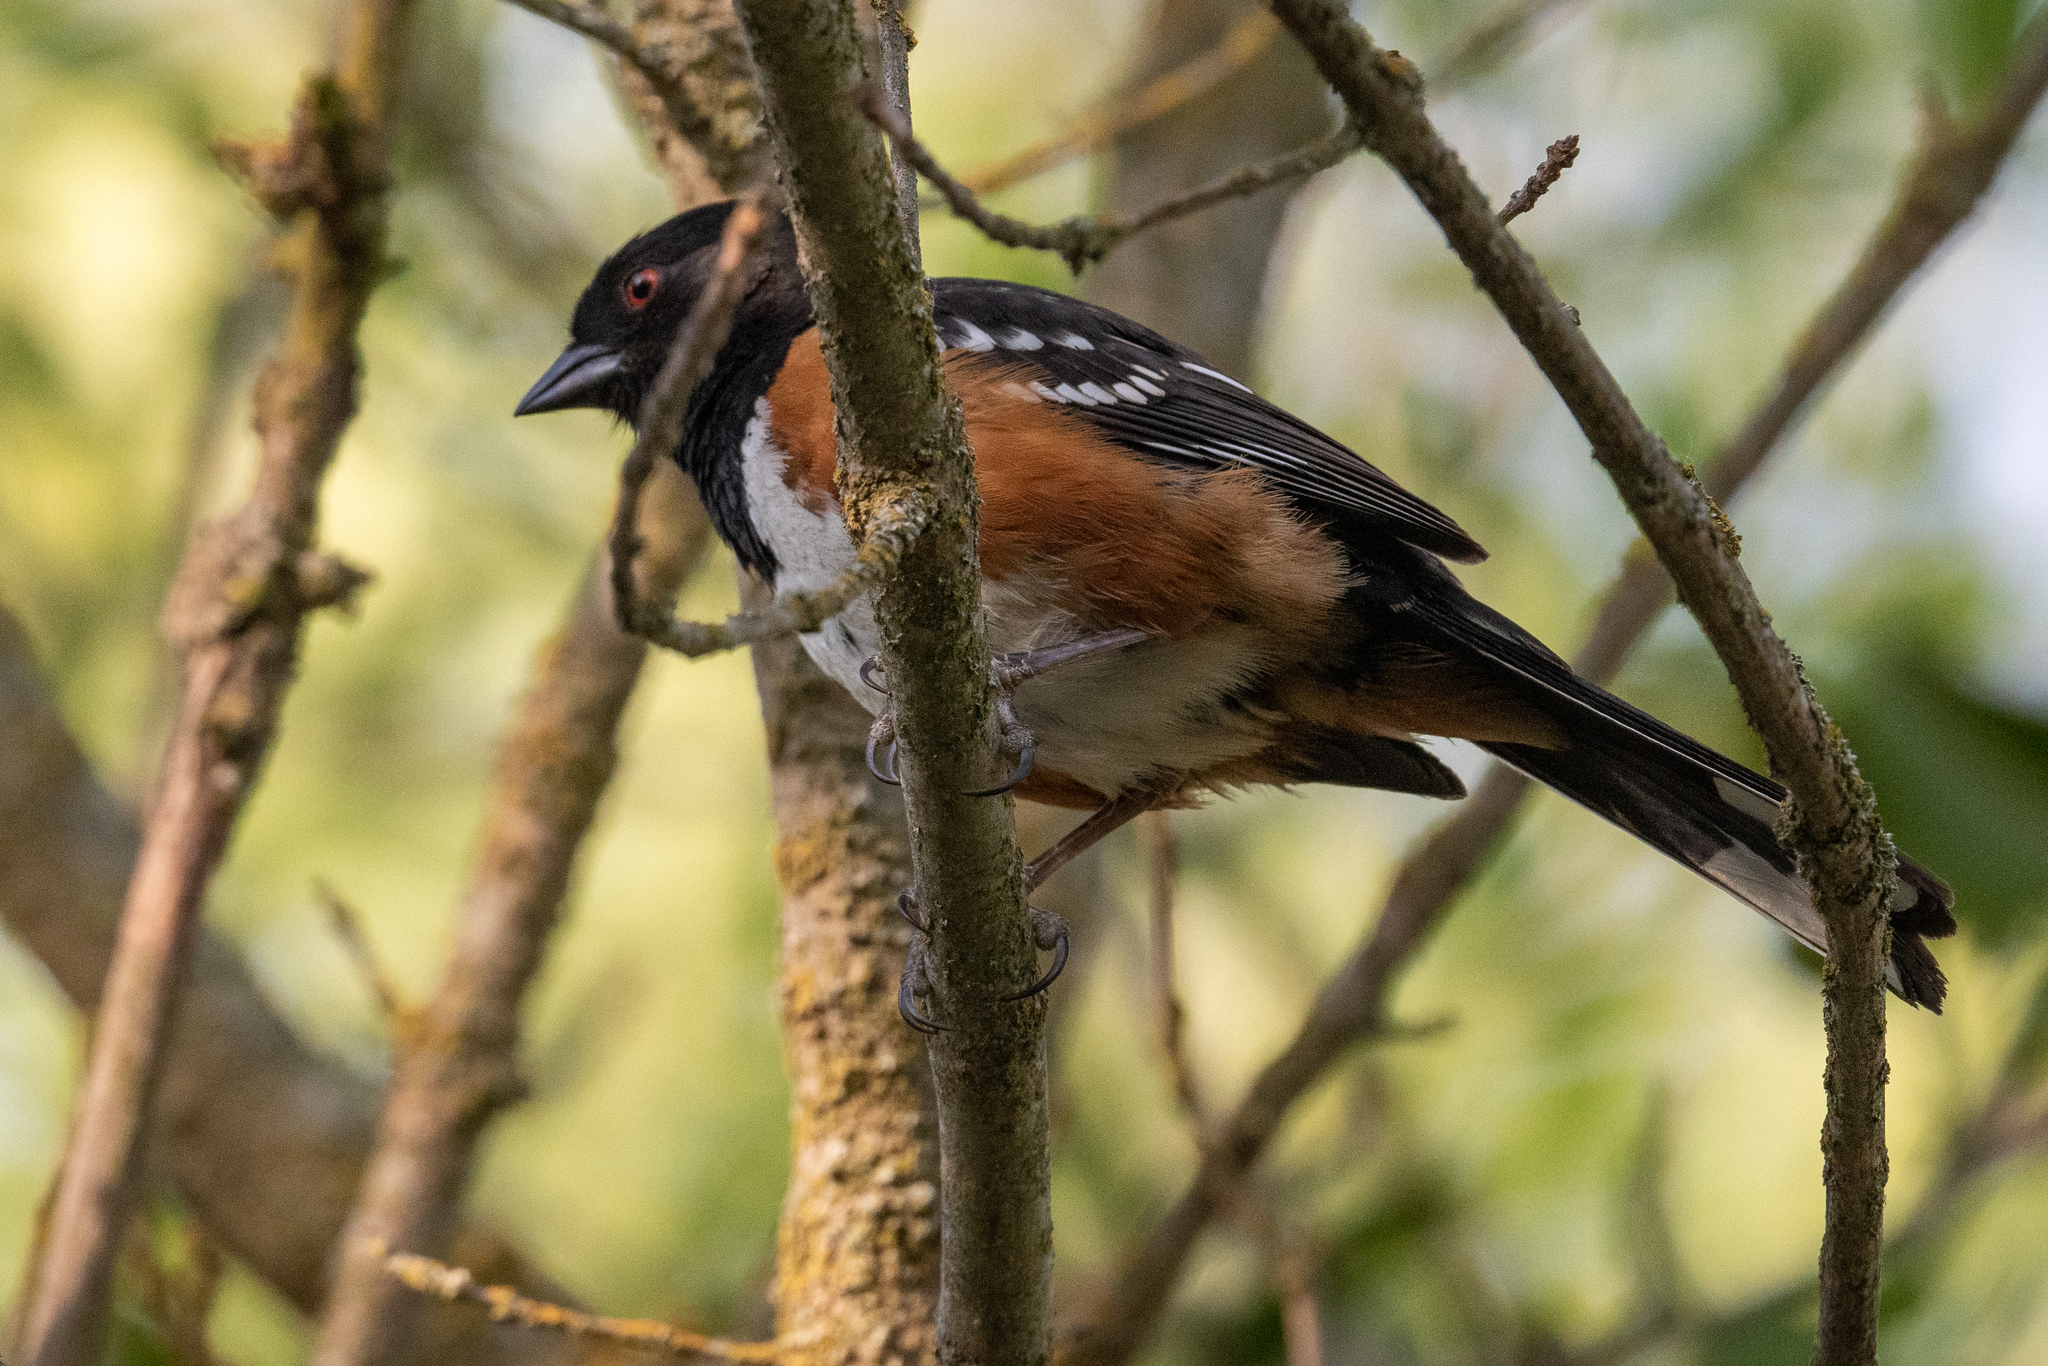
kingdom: Animalia
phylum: Chordata
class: Aves
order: Passeriformes
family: Passerellidae
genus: Pipilo
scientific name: Pipilo maculatus
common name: Spotted towhee
